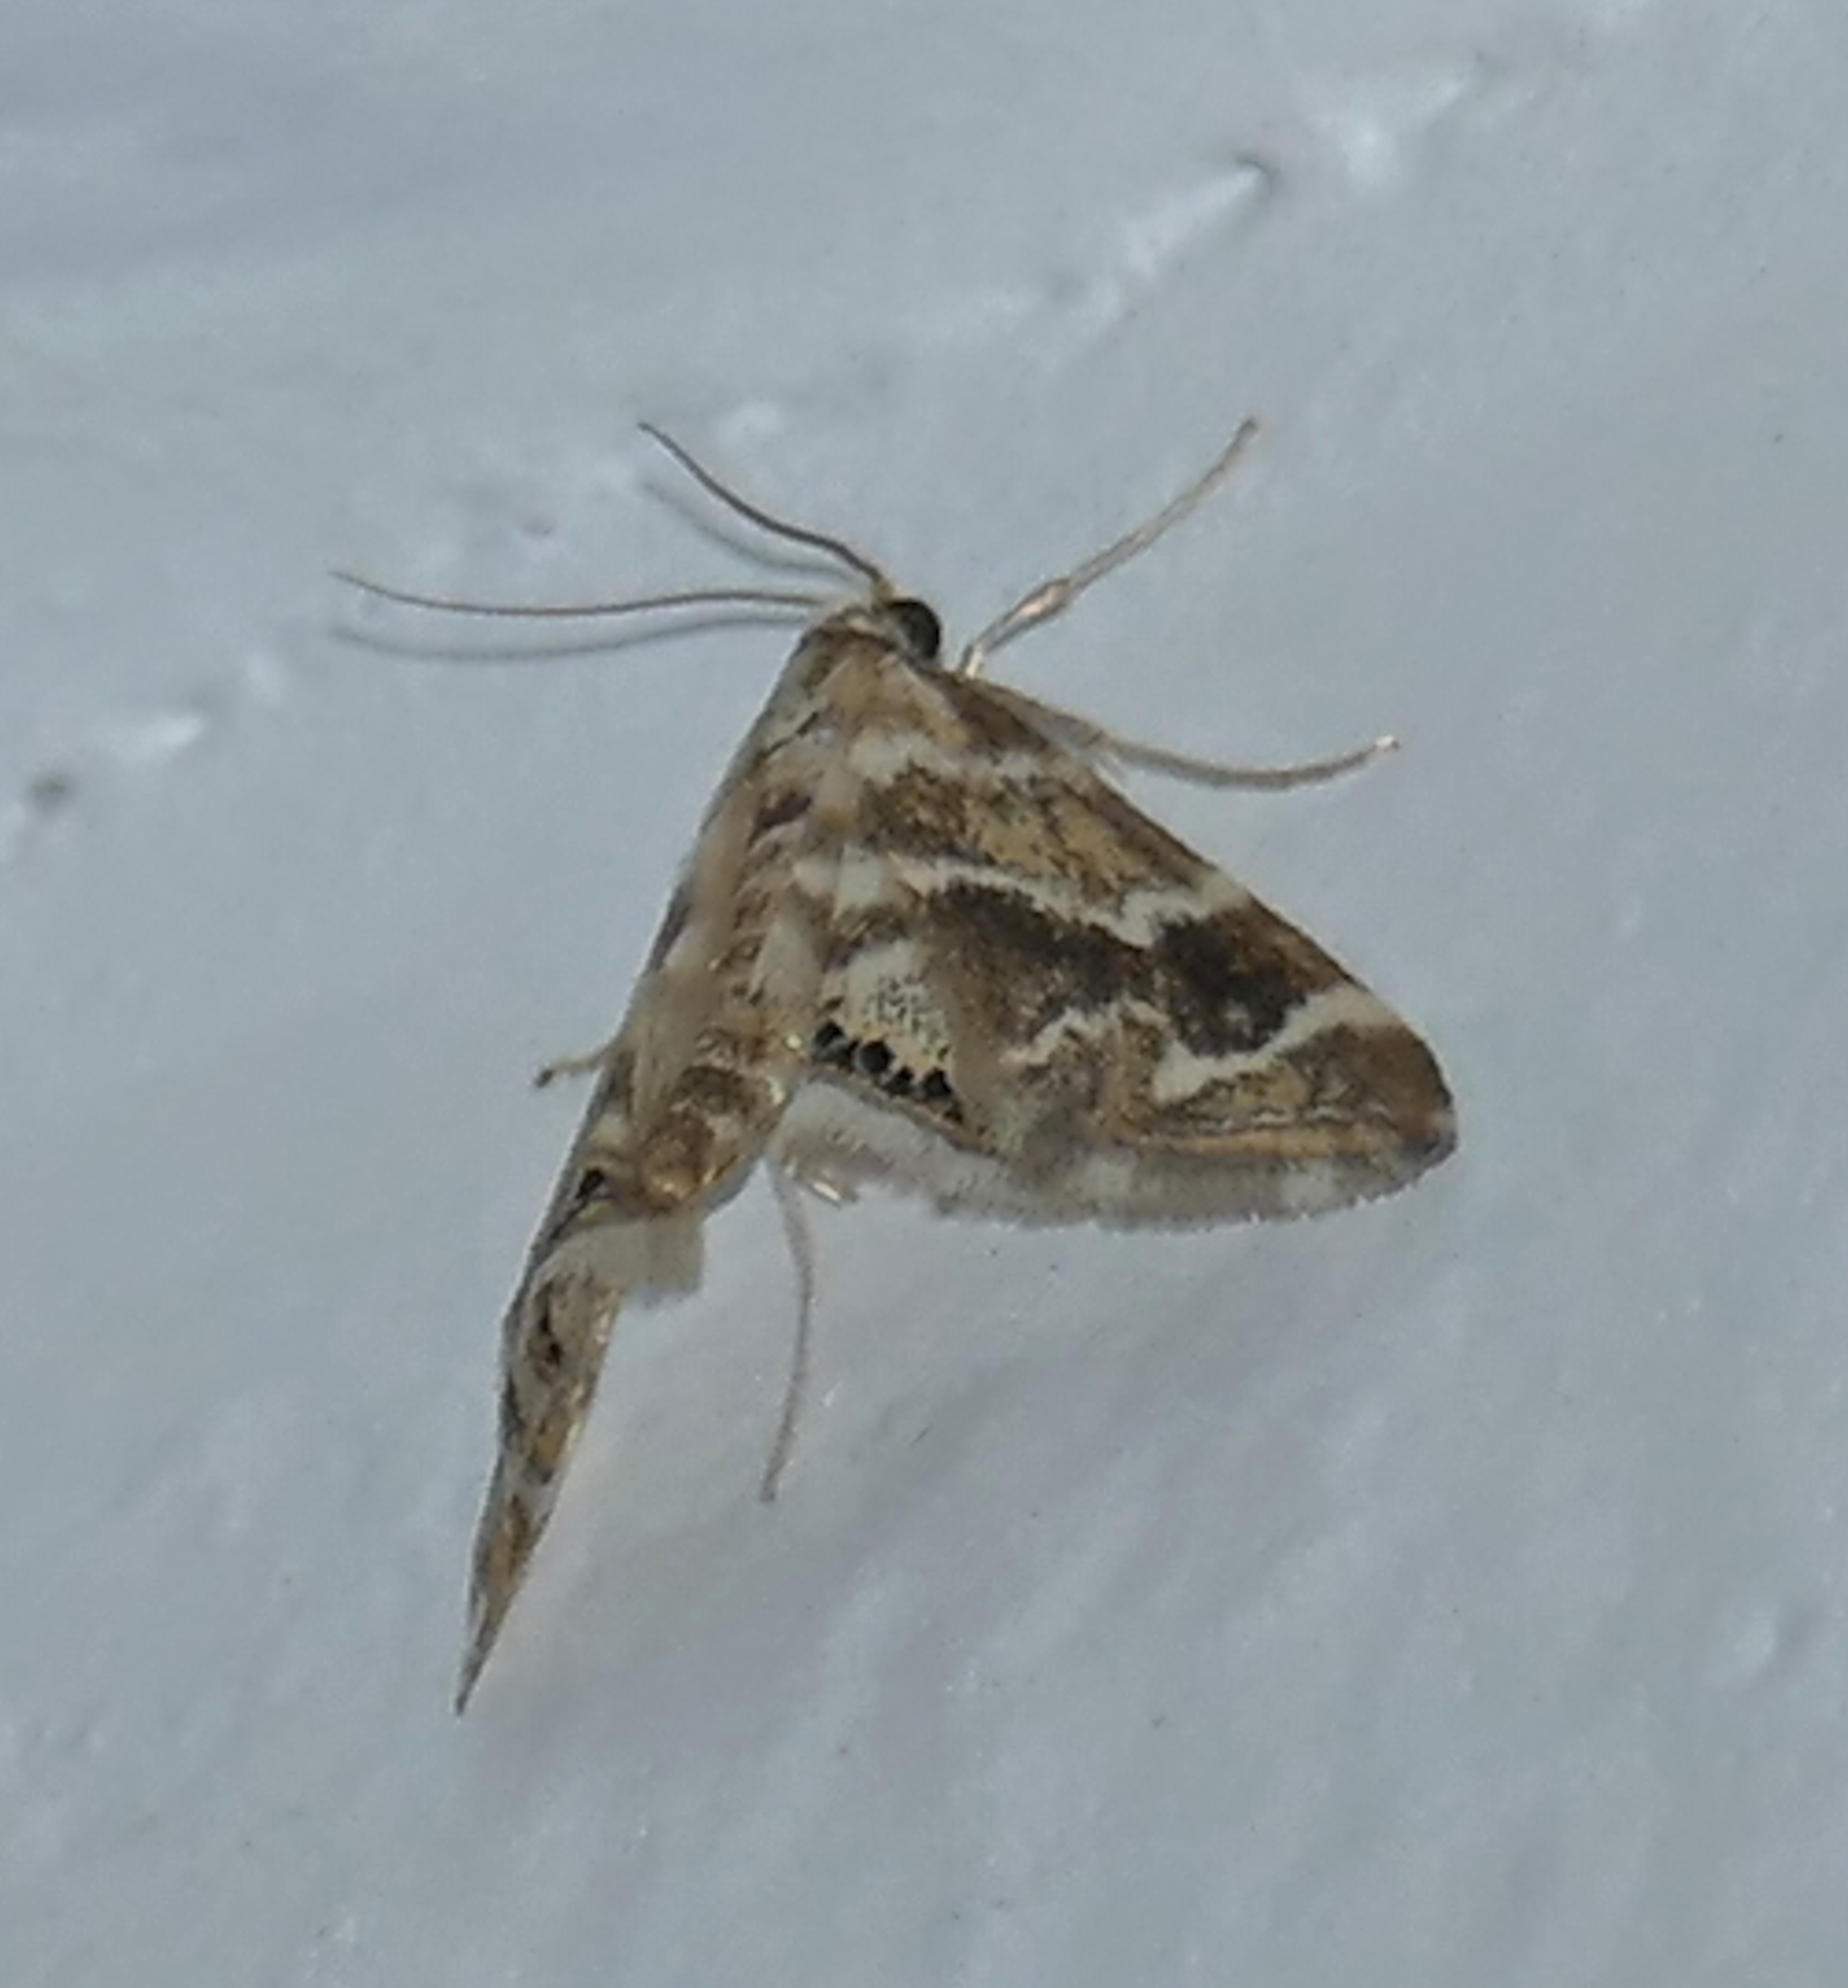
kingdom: Animalia
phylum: Arthropoda
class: Insecta
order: Lepidoptera
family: Crambidae
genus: Petrophila
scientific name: Petrophila avernalis
